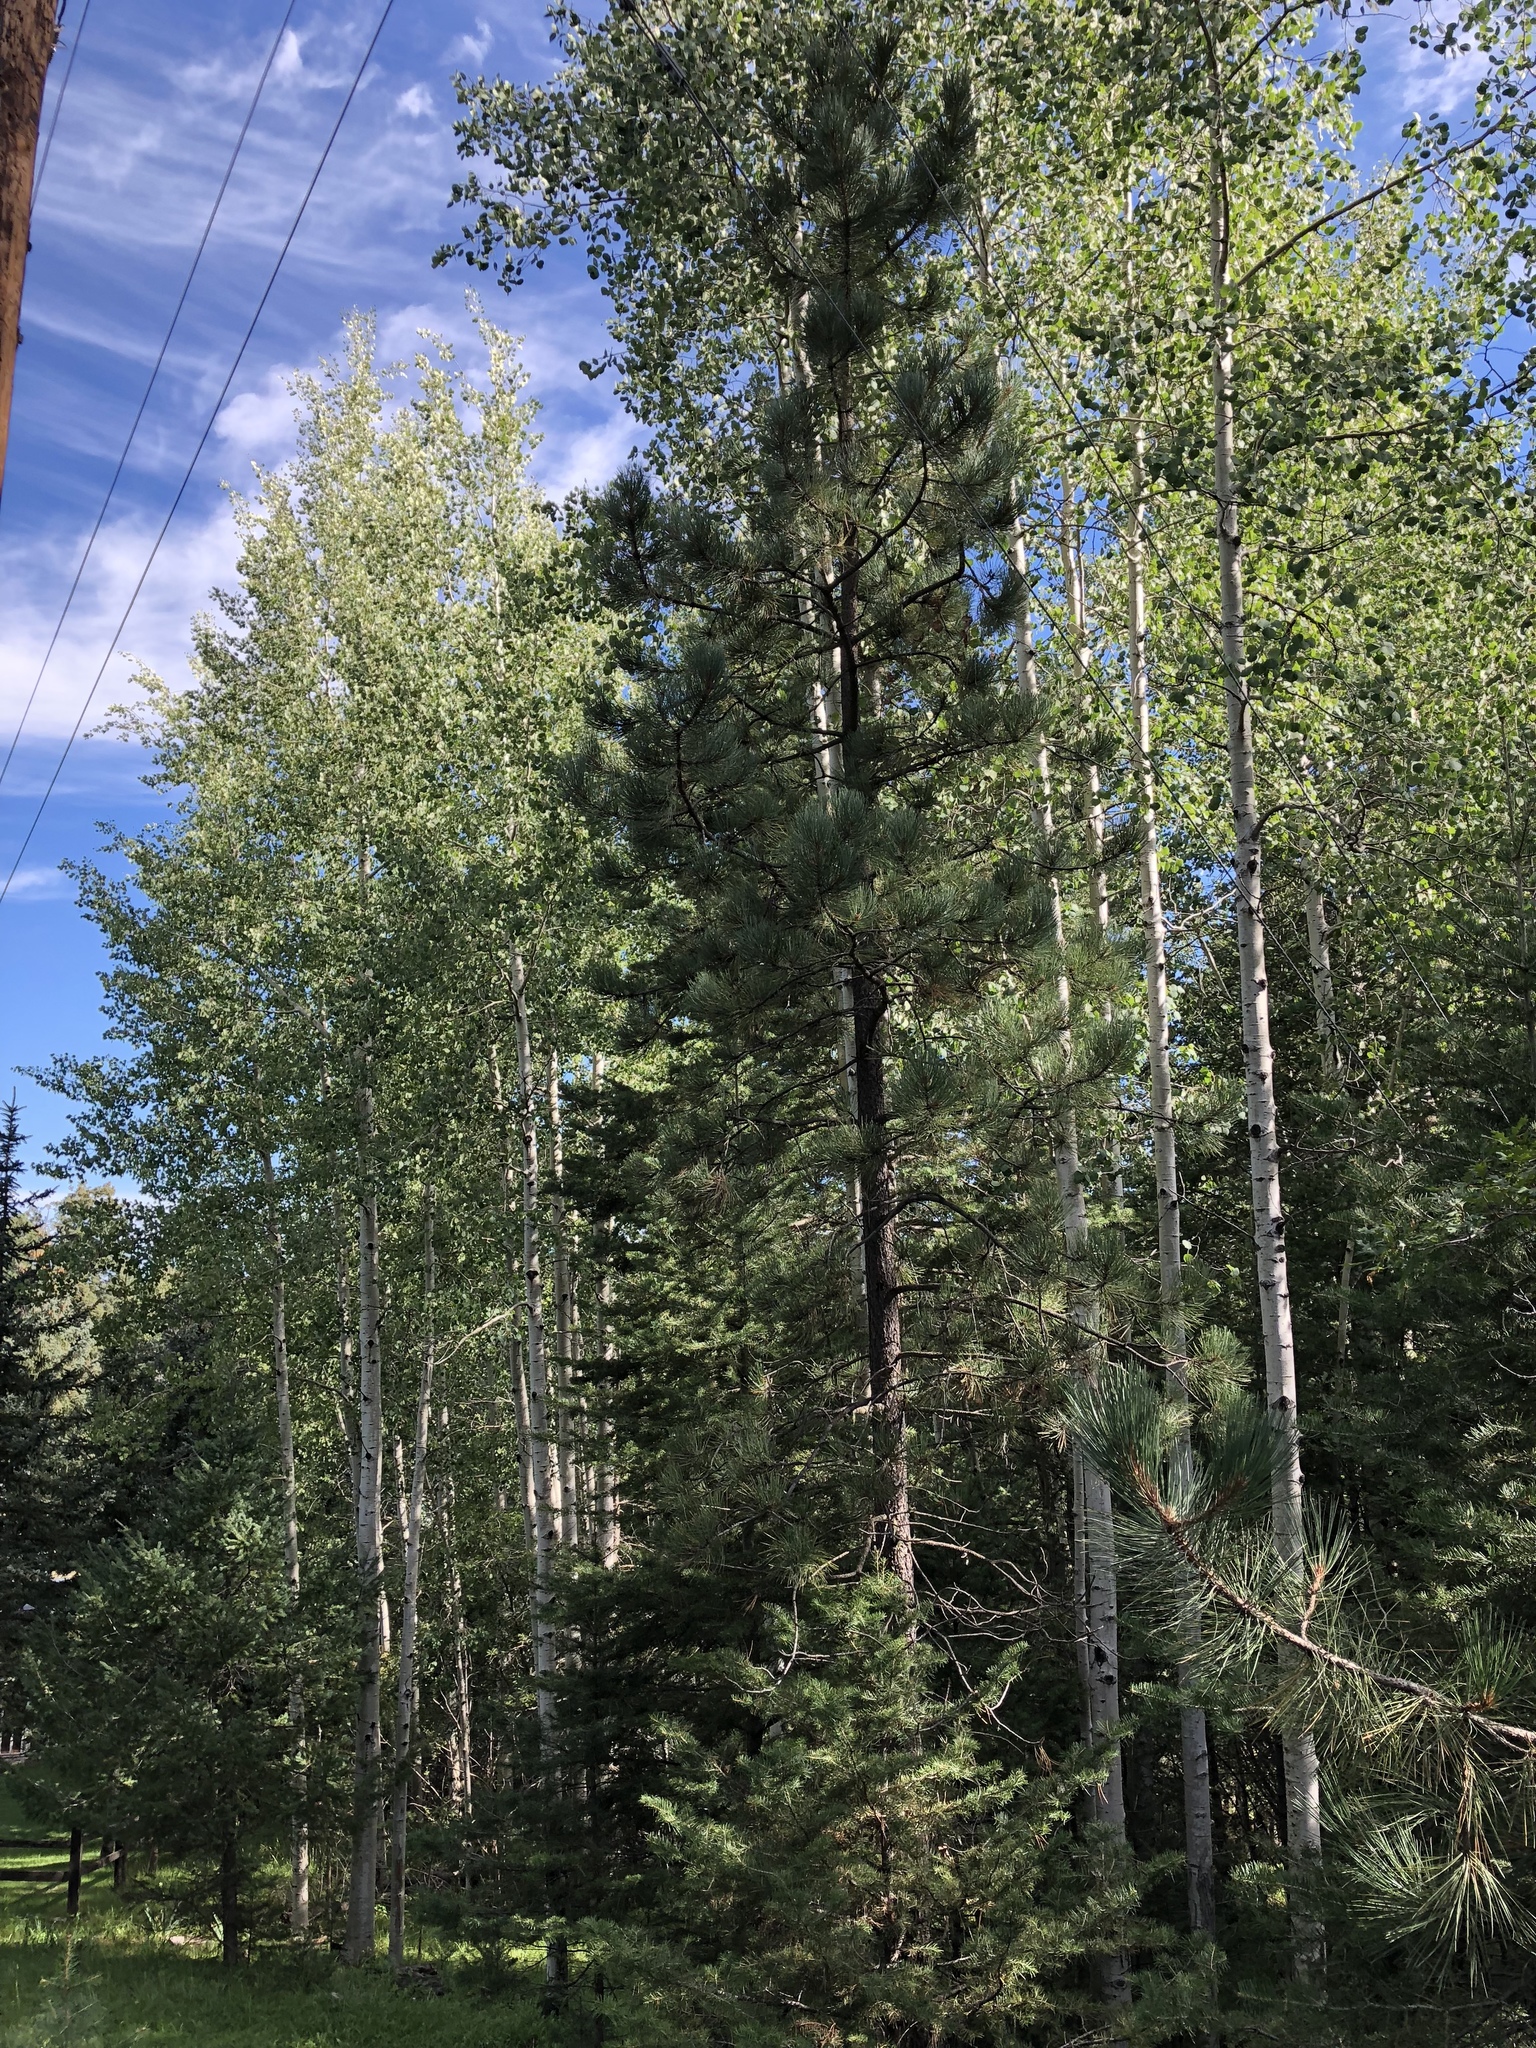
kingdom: Plantae
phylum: Tracheophyta
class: Pinopsida
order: Pinales
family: Pinaceae
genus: Pinus
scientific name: Pinus ponderosa
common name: Western yellow-pine
